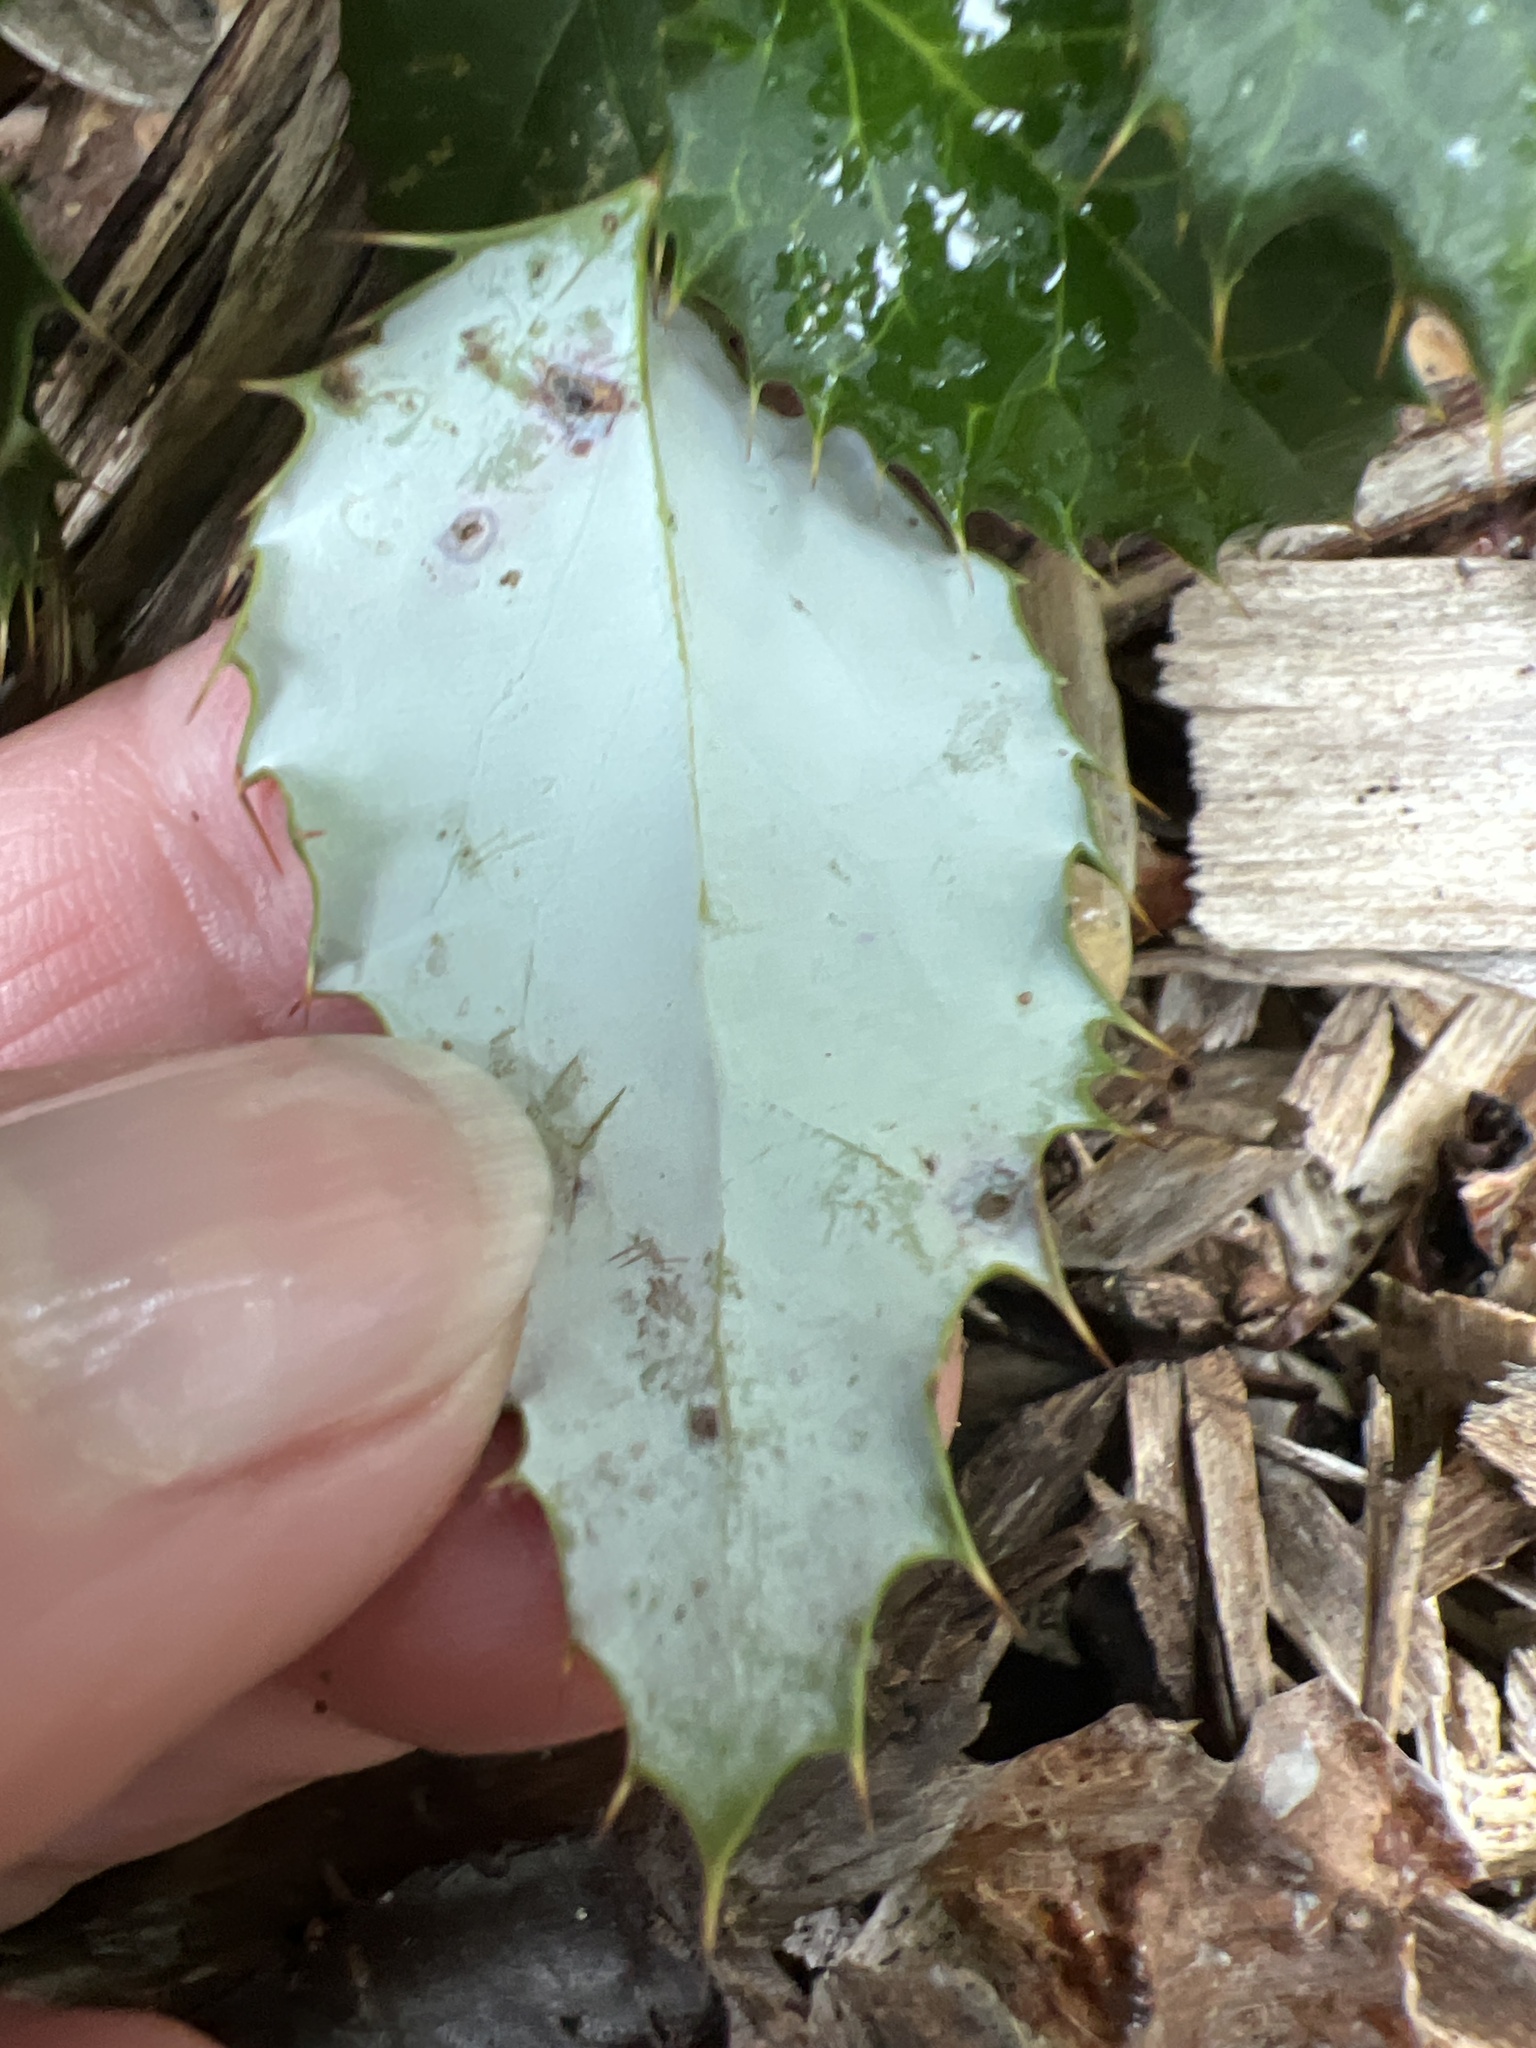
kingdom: Plantae
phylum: Tracheophyta
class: Magnoliopsida
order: Ranunculales
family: Berberidaceae
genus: Berberis
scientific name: Berberis julianae
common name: Wintergreen barberry
